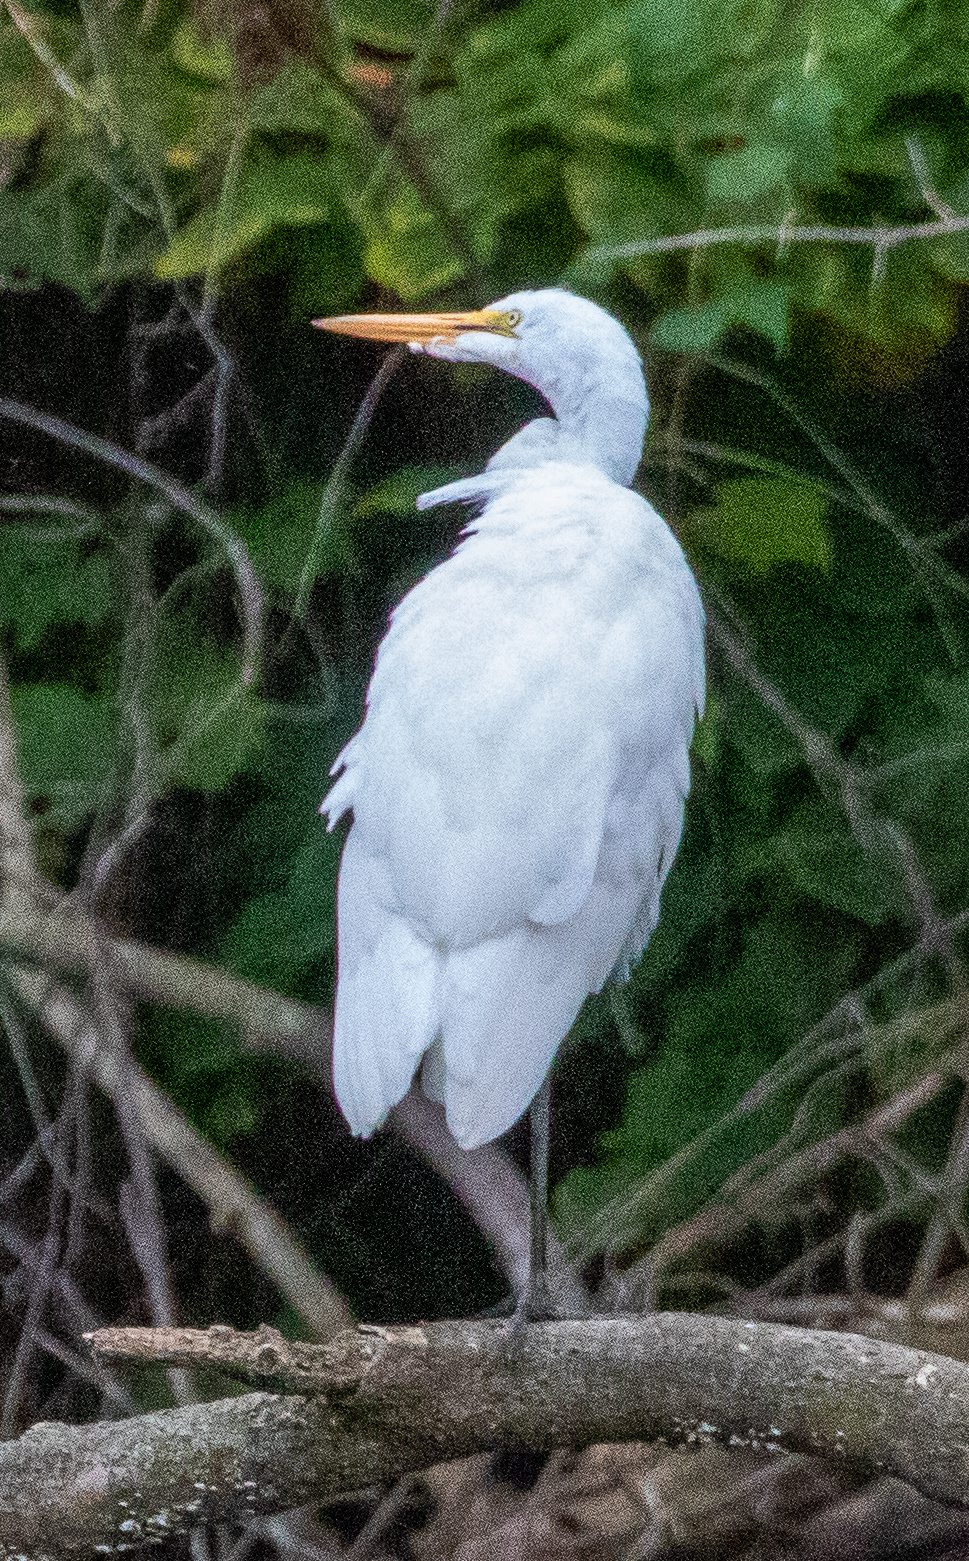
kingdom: Animalia
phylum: Chordata
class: Aves
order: Pelecaniformes
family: Ardeidae
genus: Ardea
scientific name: Ardea alba
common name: Great egret
